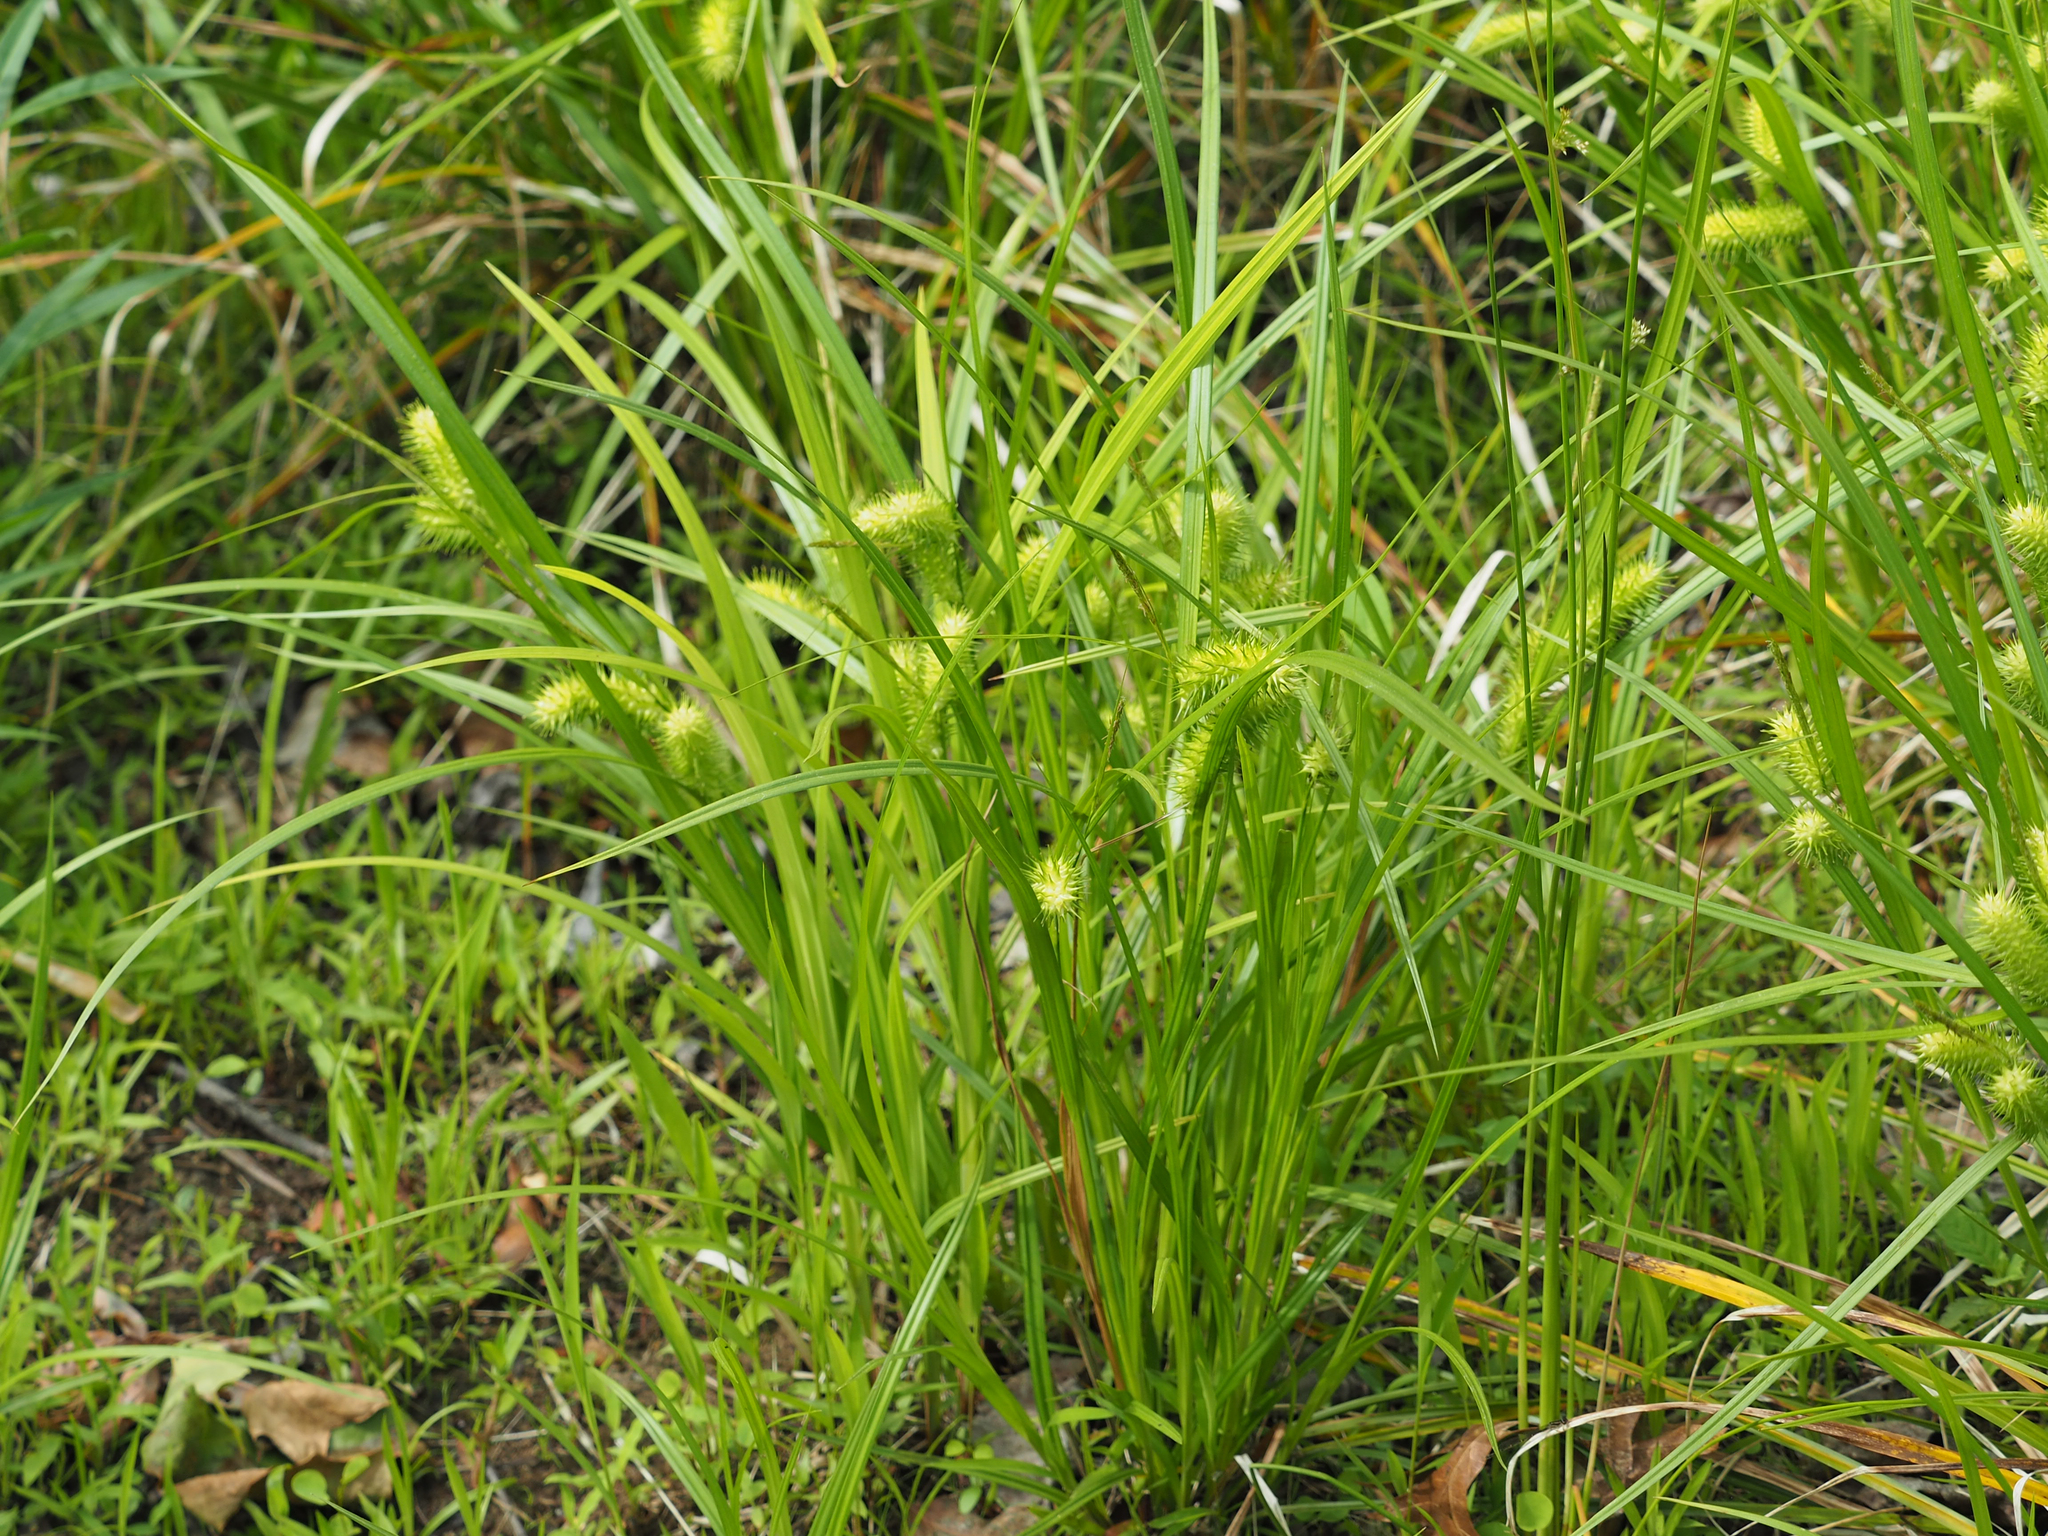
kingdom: Plantae
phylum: Tracheophyta
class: Liliopsida
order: Poales
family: Cyperaceae
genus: Carex
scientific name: Carex lurida
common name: Sallow sedge
